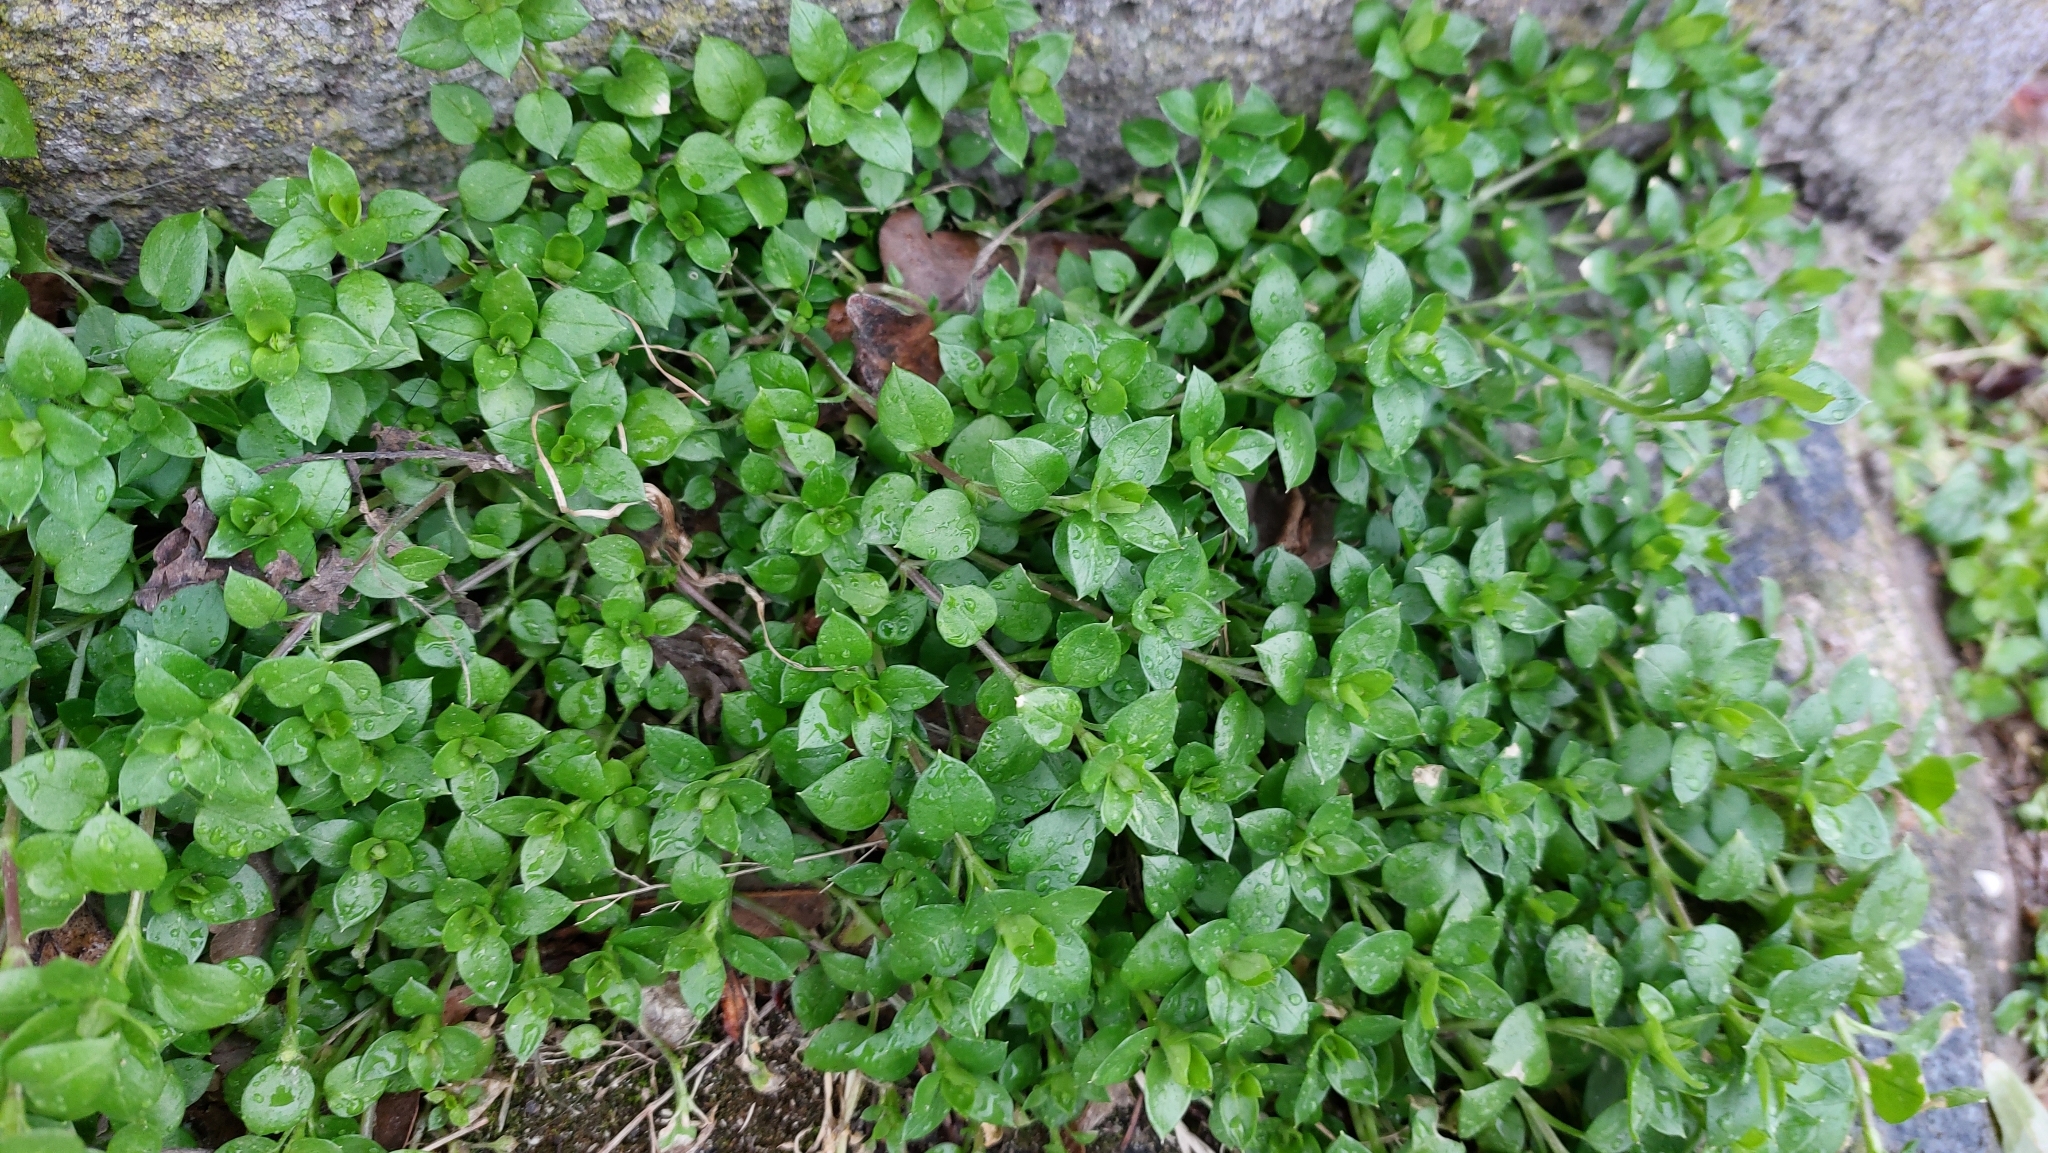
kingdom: Plantae
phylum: Tracheophyta
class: Magnoliopsida
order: Caryophyllales
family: Caryophyllaceae
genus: Stellaria
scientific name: Stellaria media
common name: Common chickweed
